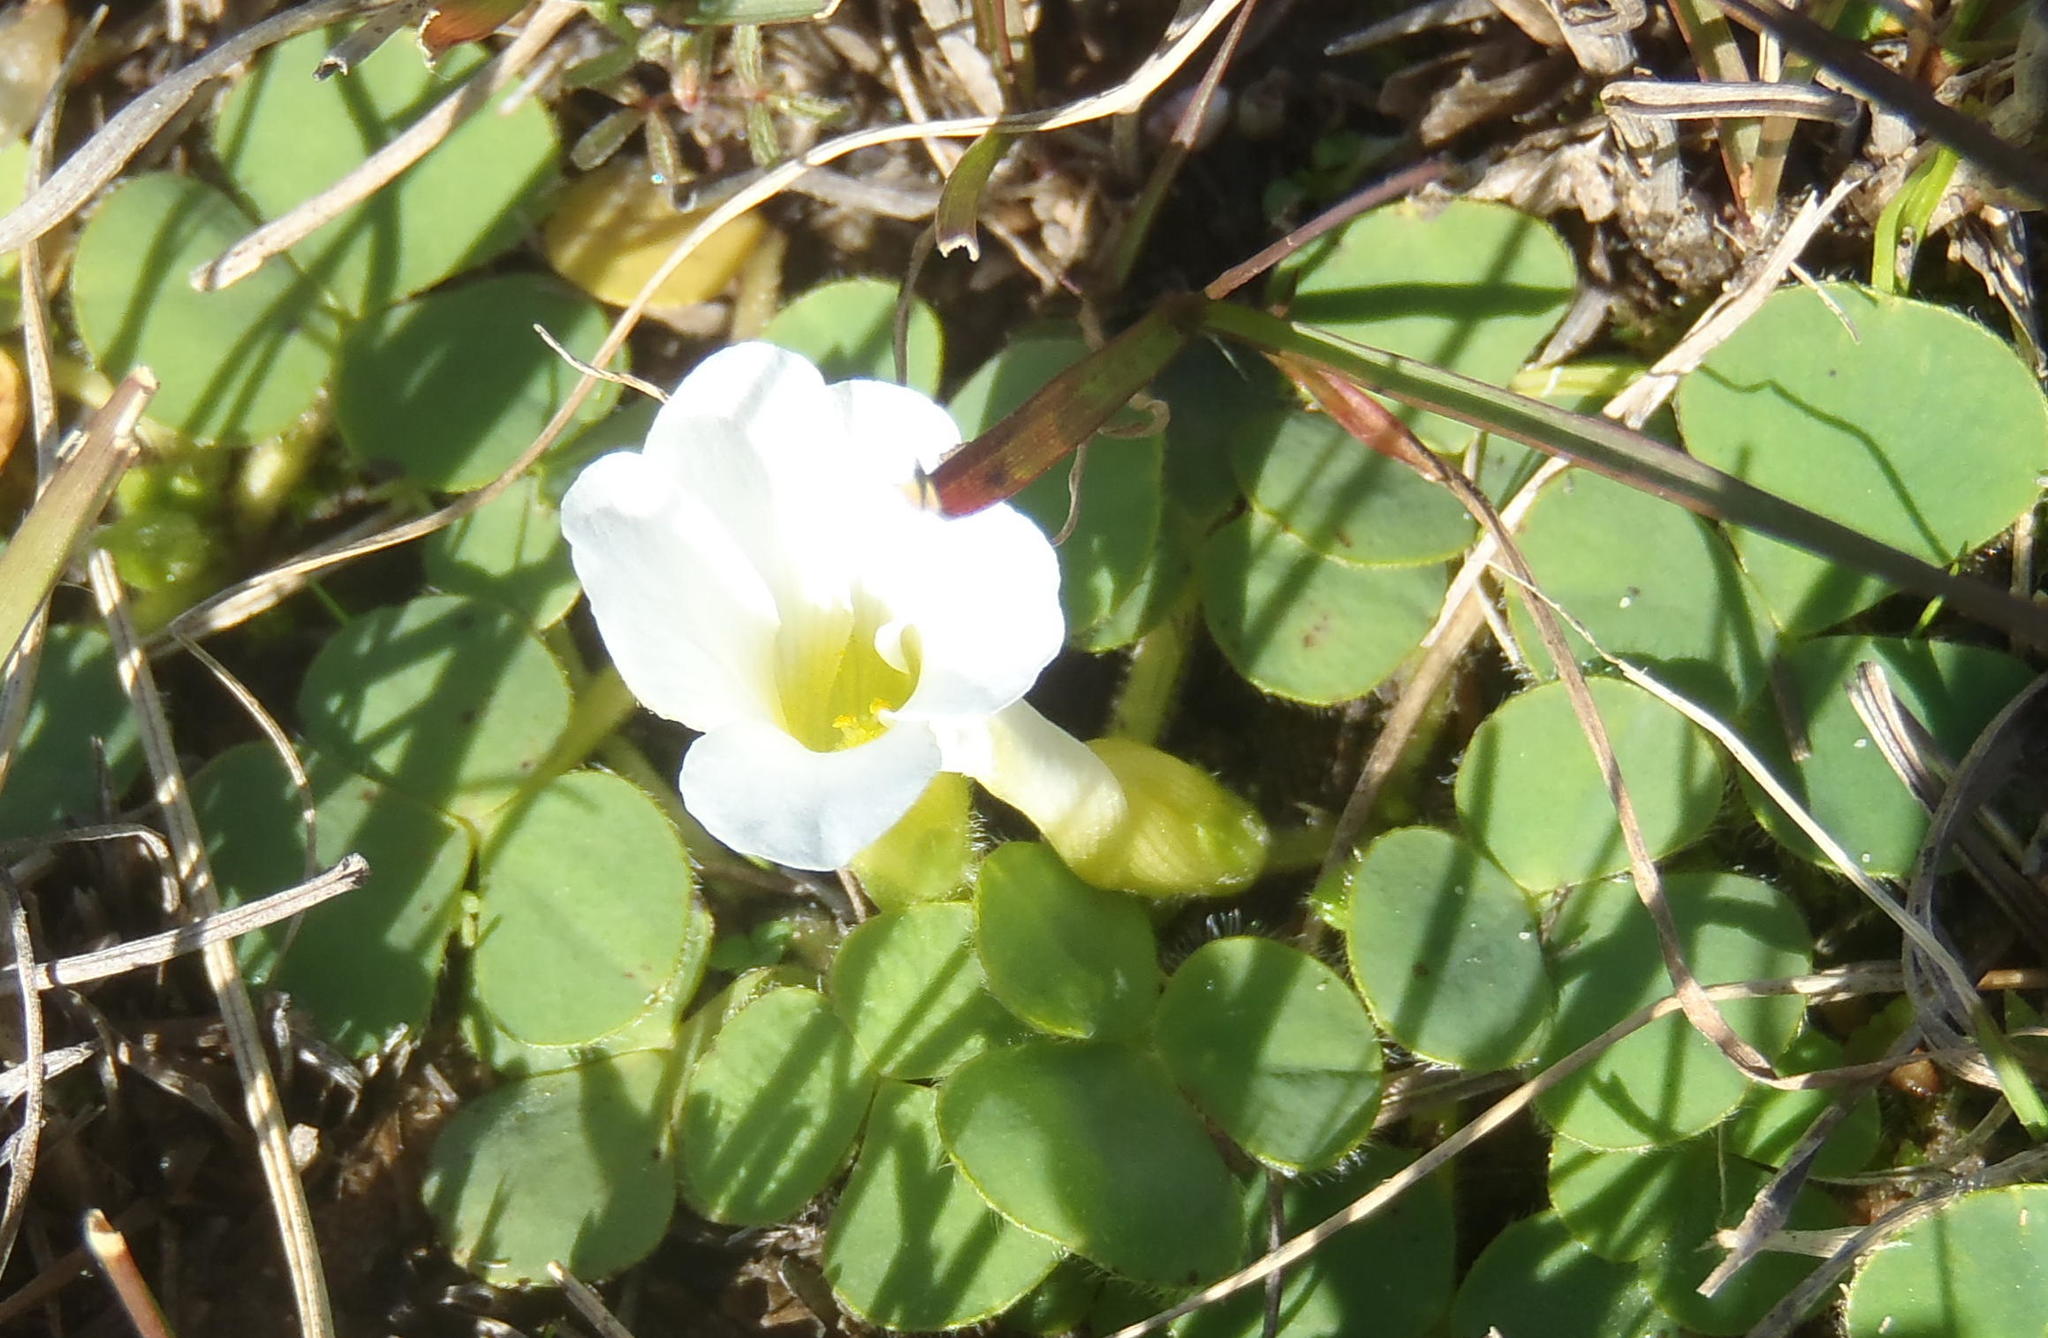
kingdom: Plantae
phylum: Tracheophyta
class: Magnoliopsida
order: Oxalidales
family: Oxalidaceae
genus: Oxalis
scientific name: Oxalis purpurea
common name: Purple woodsorrel
